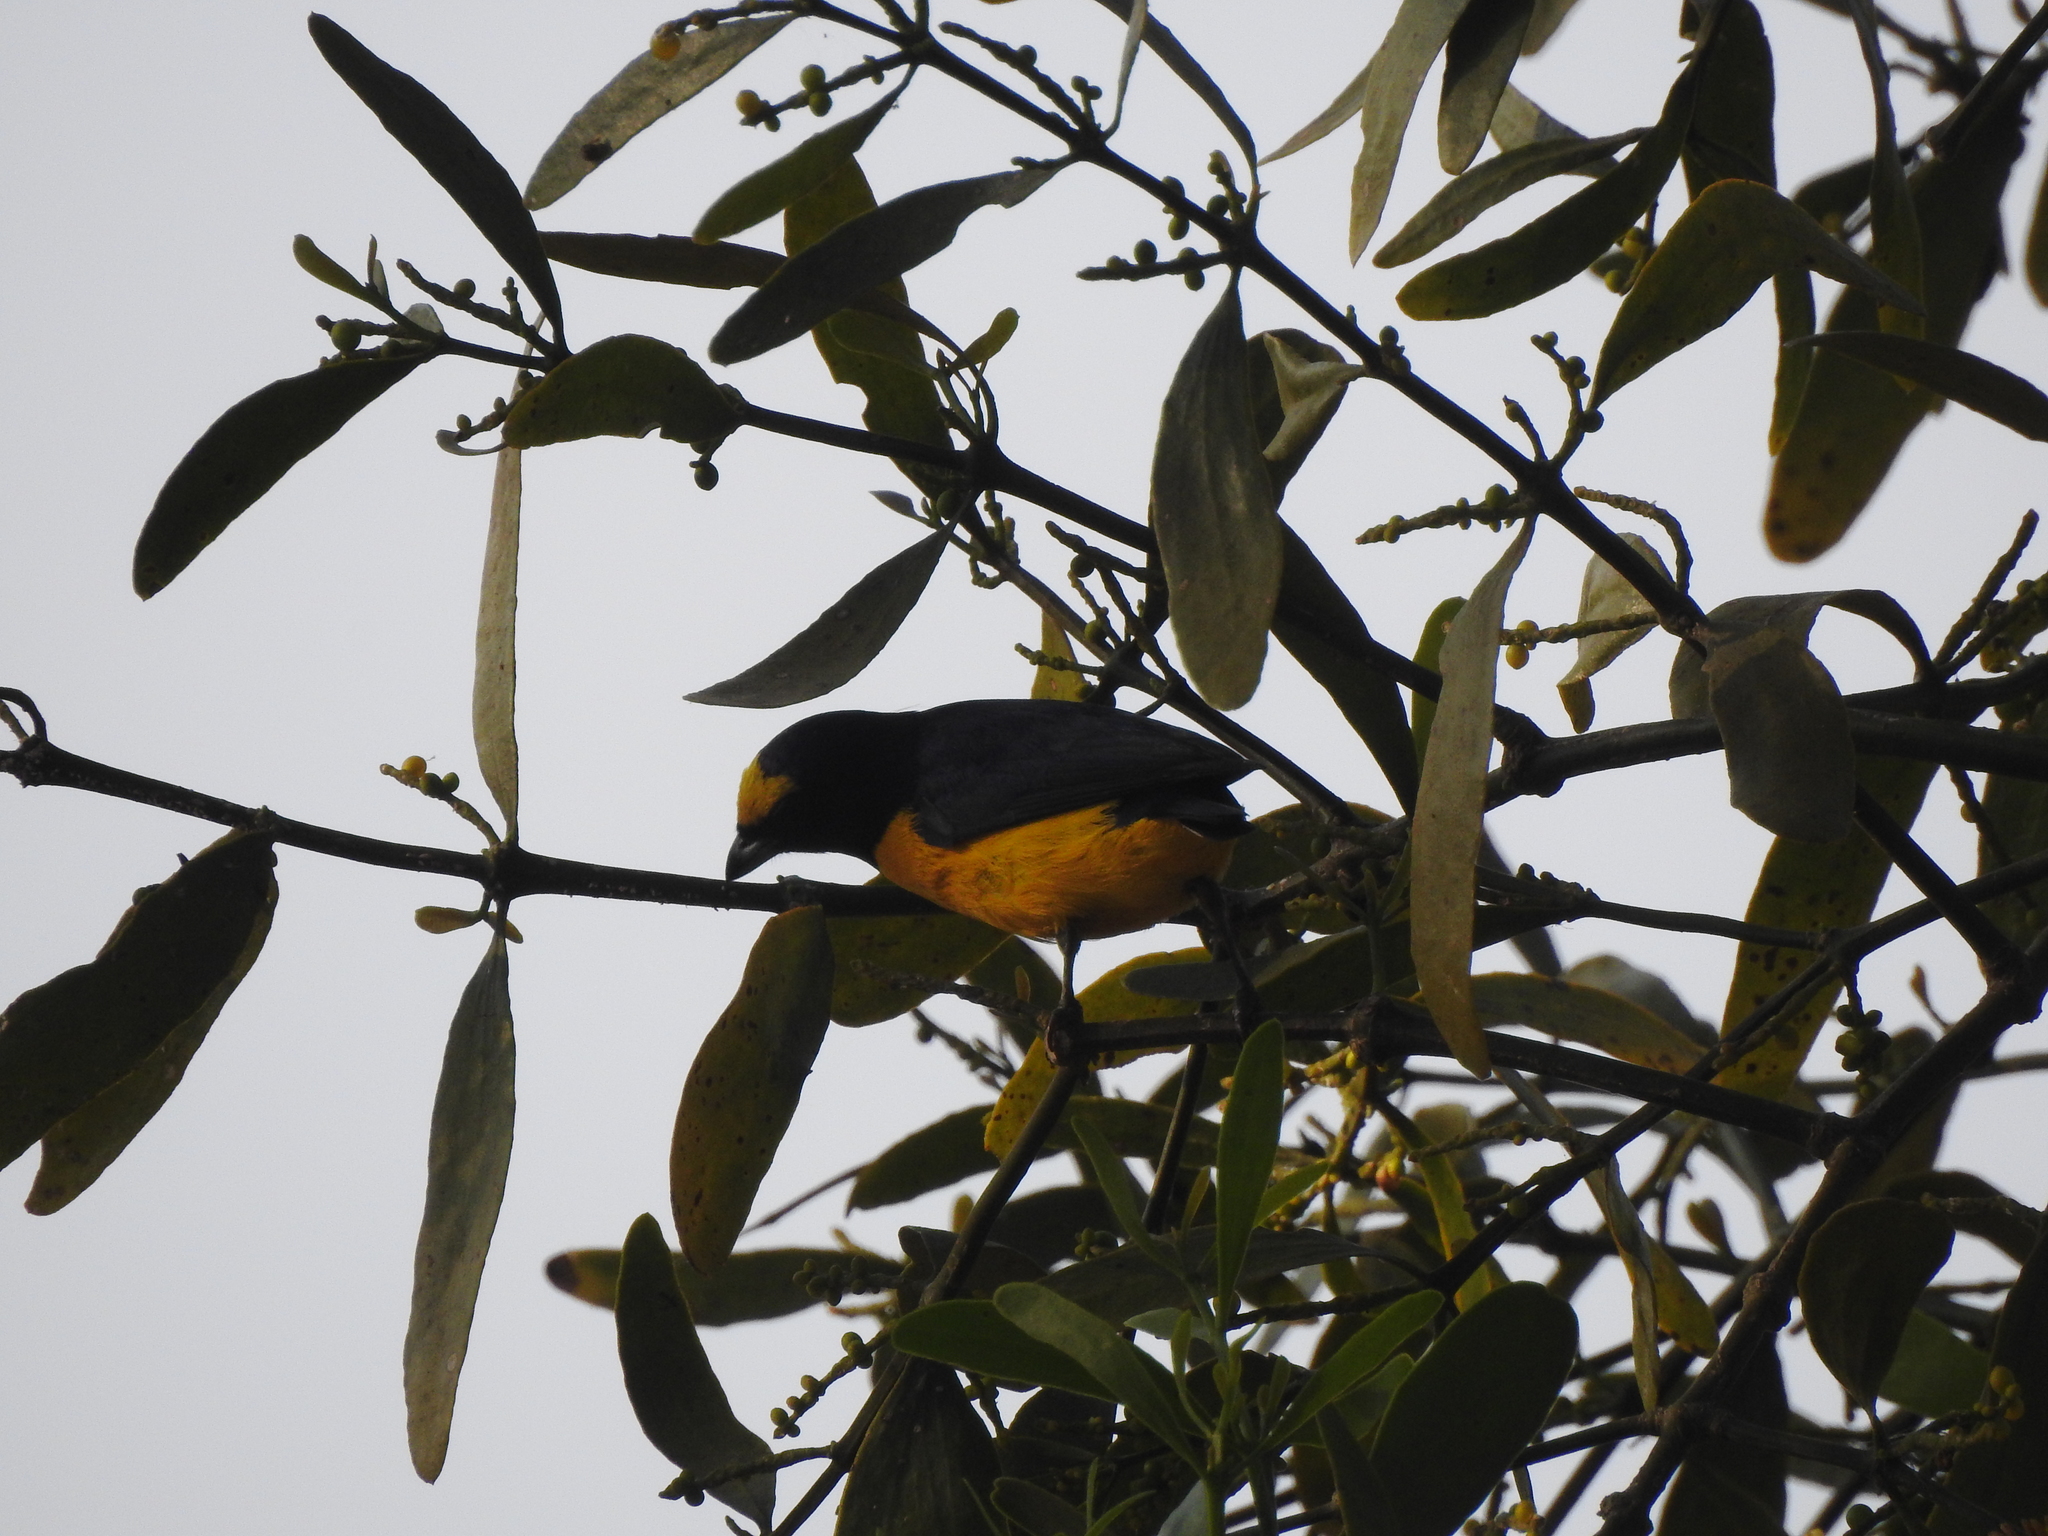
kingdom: Animalia
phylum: Chordata
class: Aves
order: Passeriformes
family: Fringillidae
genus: Euphonia
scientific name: Euphonia godmani
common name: West mexican euphonia
